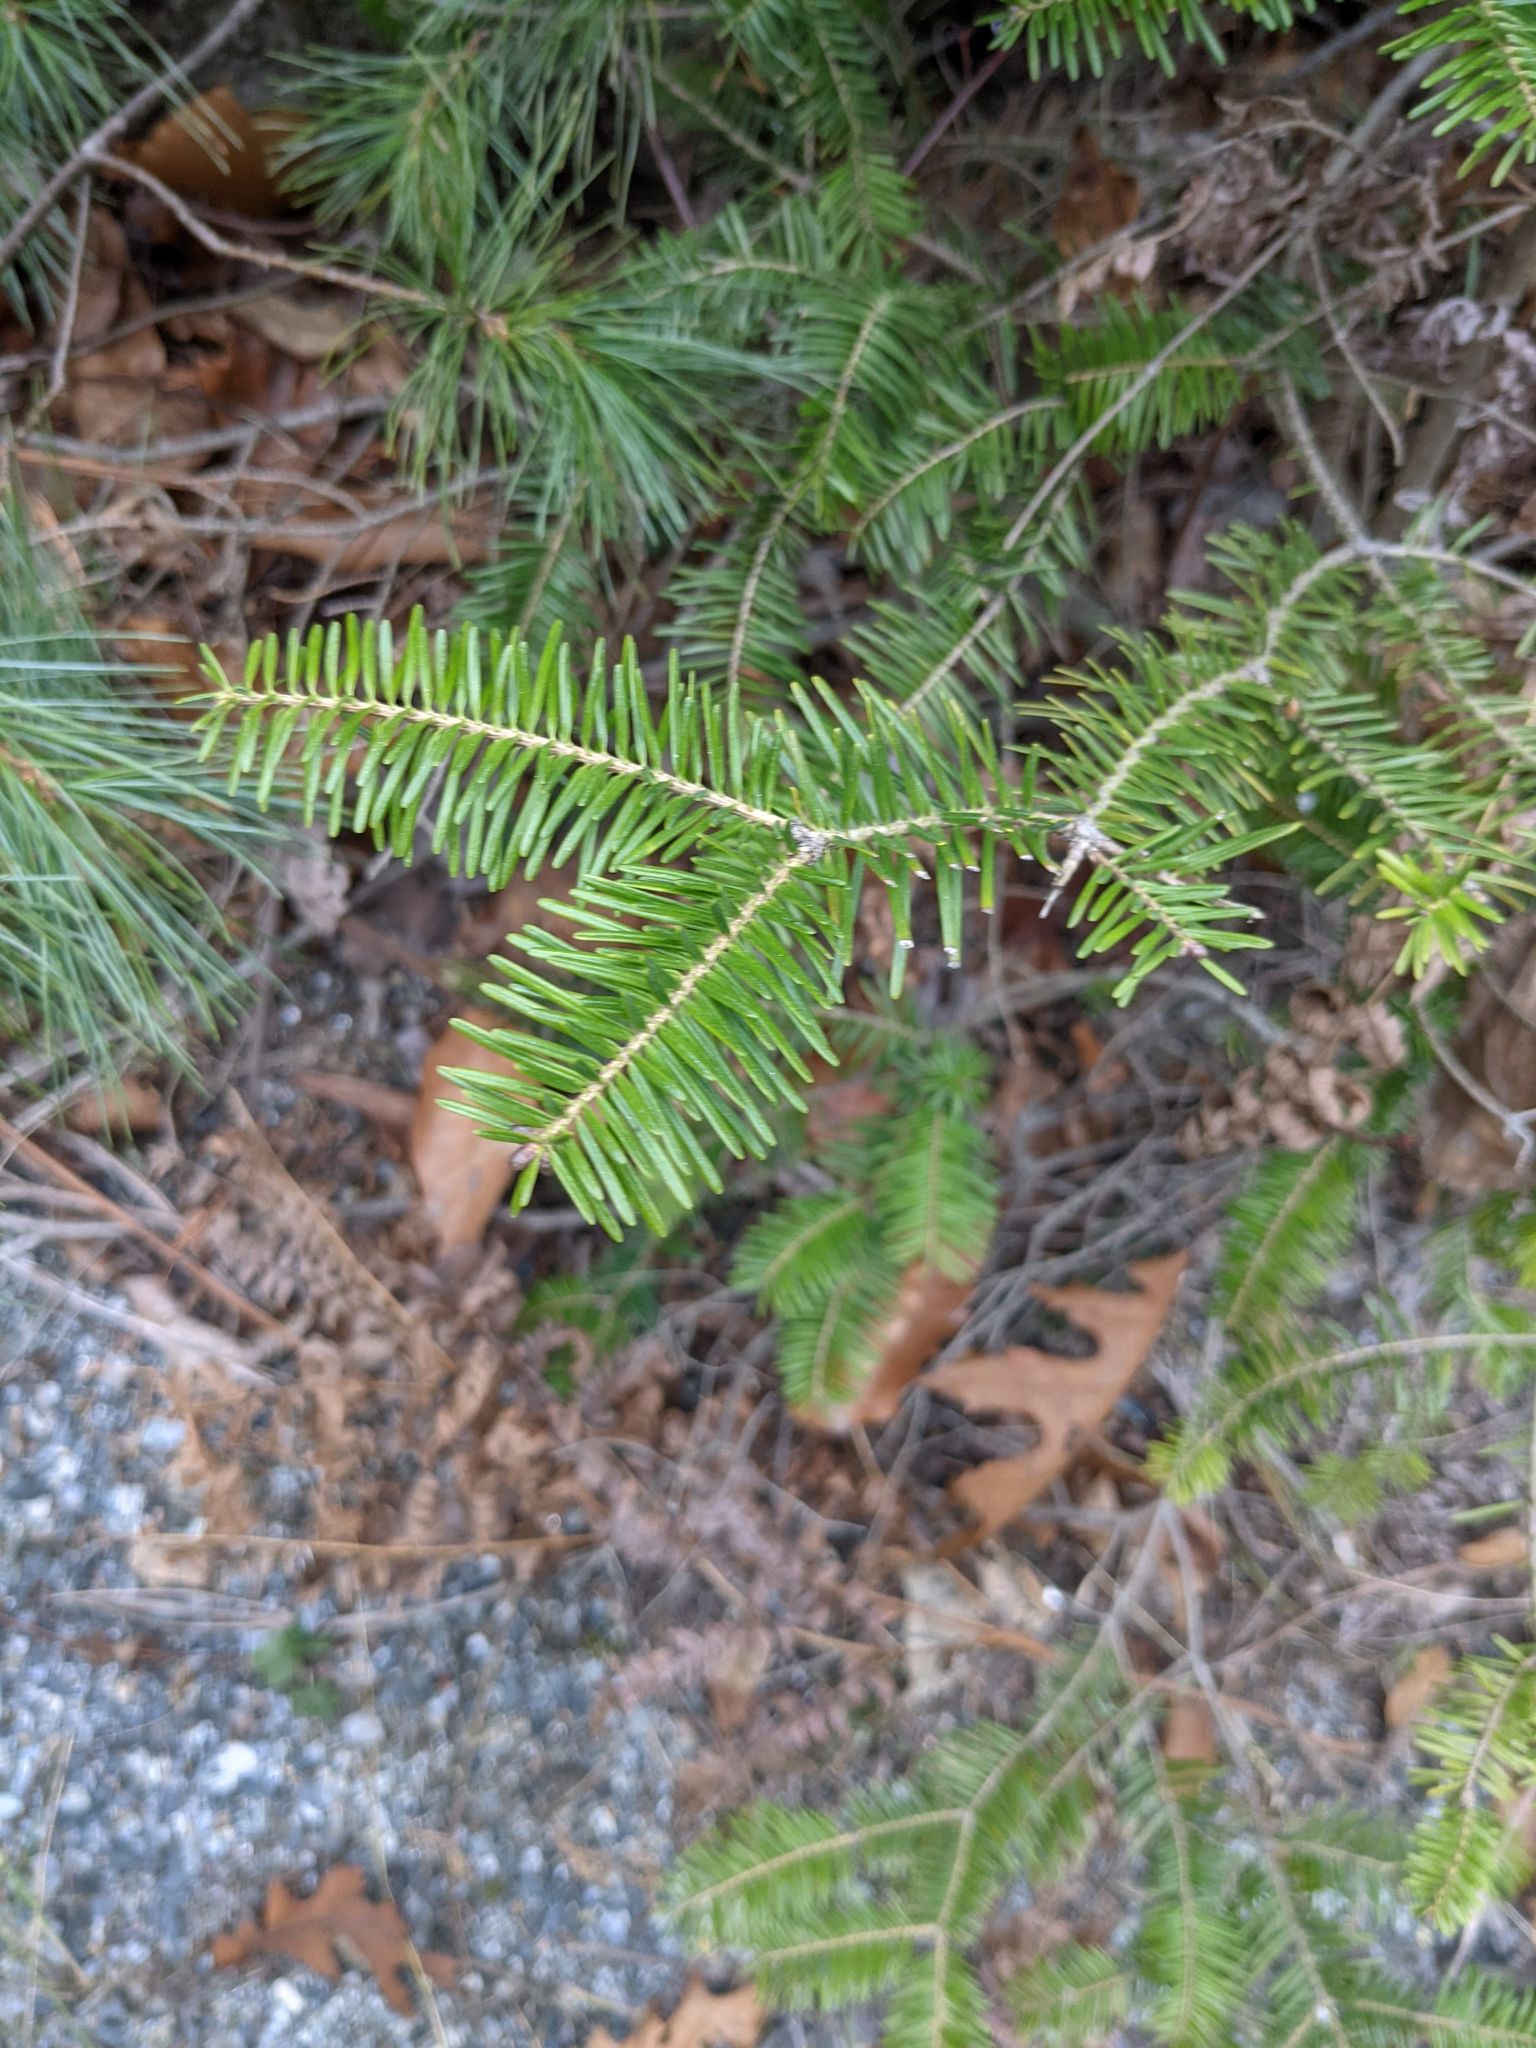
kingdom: Plantae
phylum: Tracheophyta
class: Pinopsida
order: Pinales
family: Pinaceae
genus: Abies
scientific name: Abies balsamea
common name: Balsam fir
